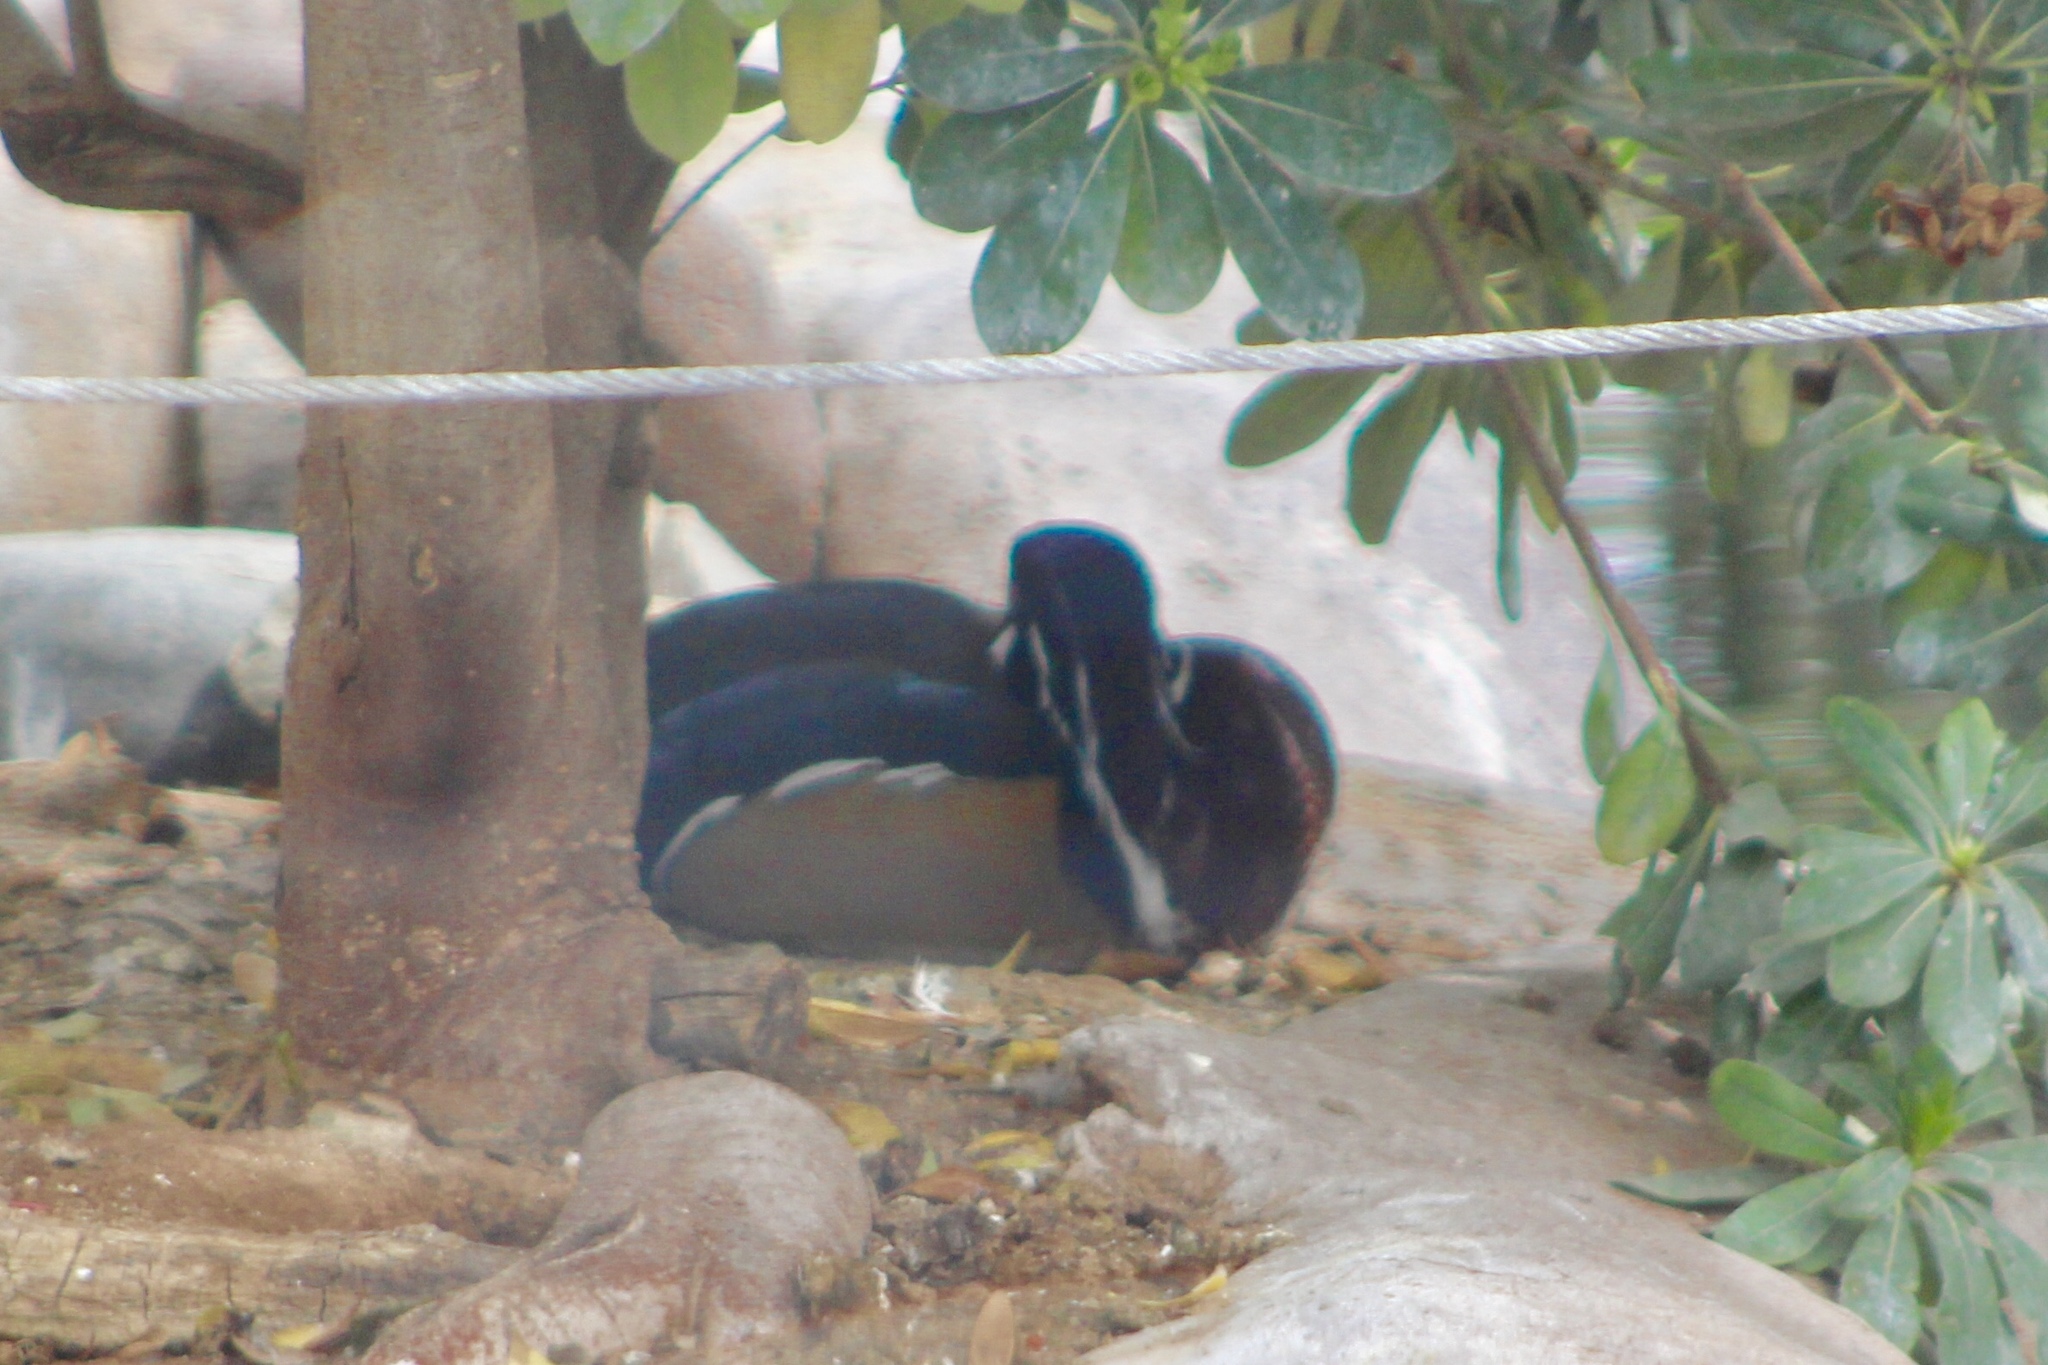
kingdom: Animalia
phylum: Chordata
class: Aves
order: Anseriformes
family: Anatidae
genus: Aix
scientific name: Aix sponsa
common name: Wood duck
